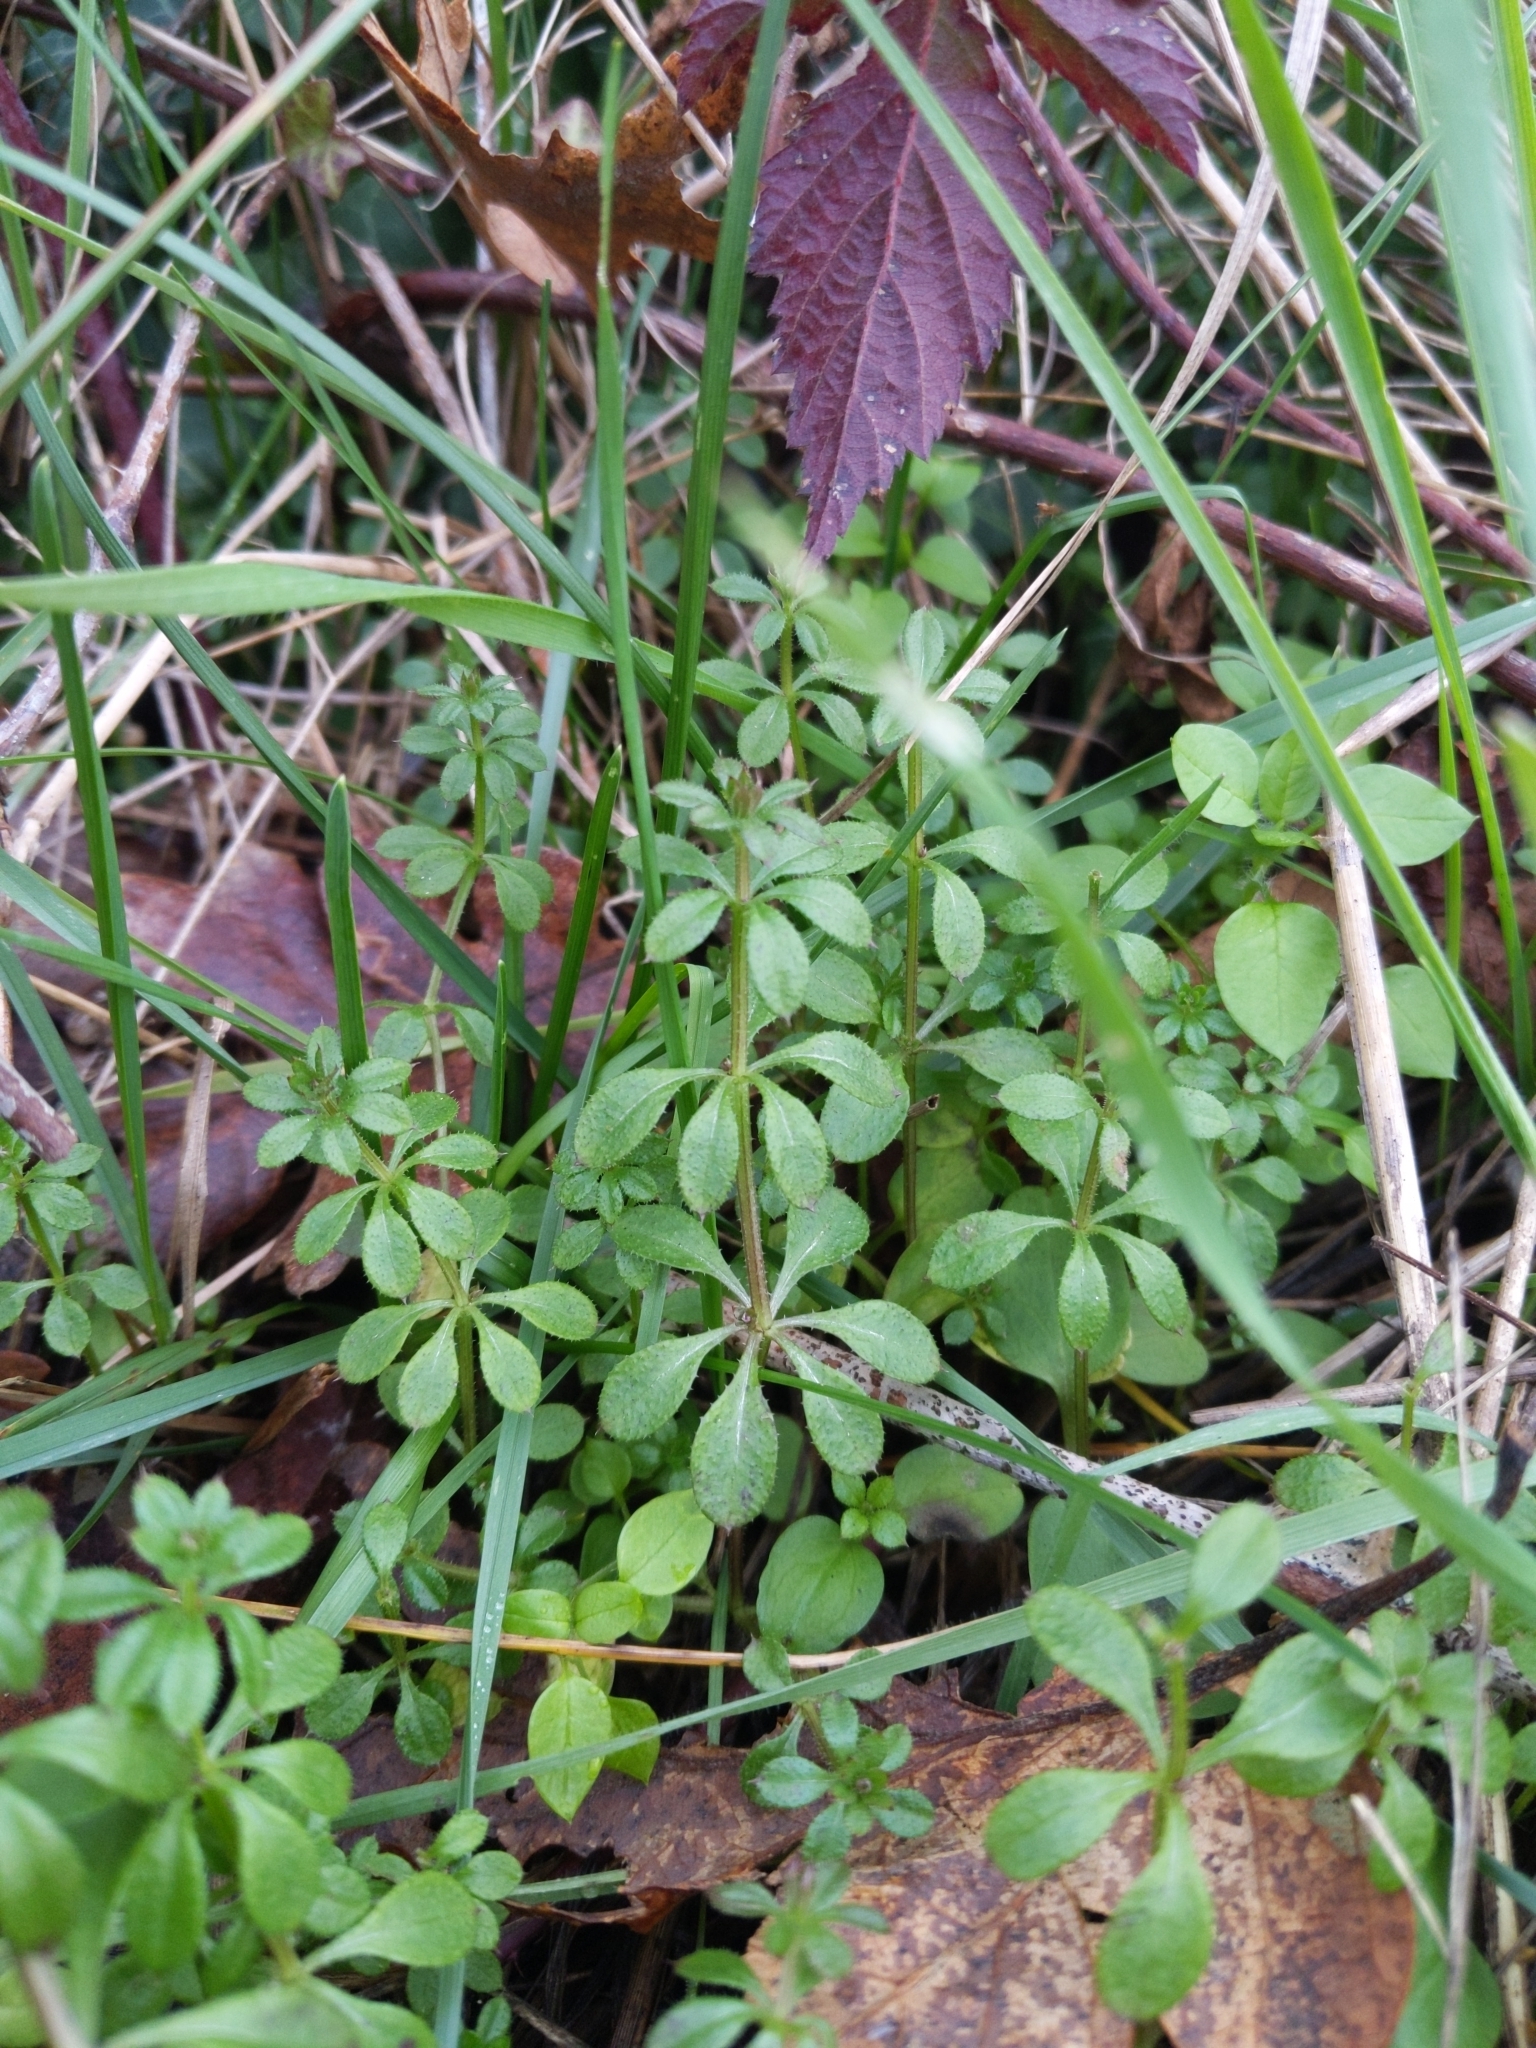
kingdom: Plantae
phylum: Tracheophyta
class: Magnoliopsida
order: Gentianales
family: Rubiaceae
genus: Galium
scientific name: Galium aparine
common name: Cleavers
